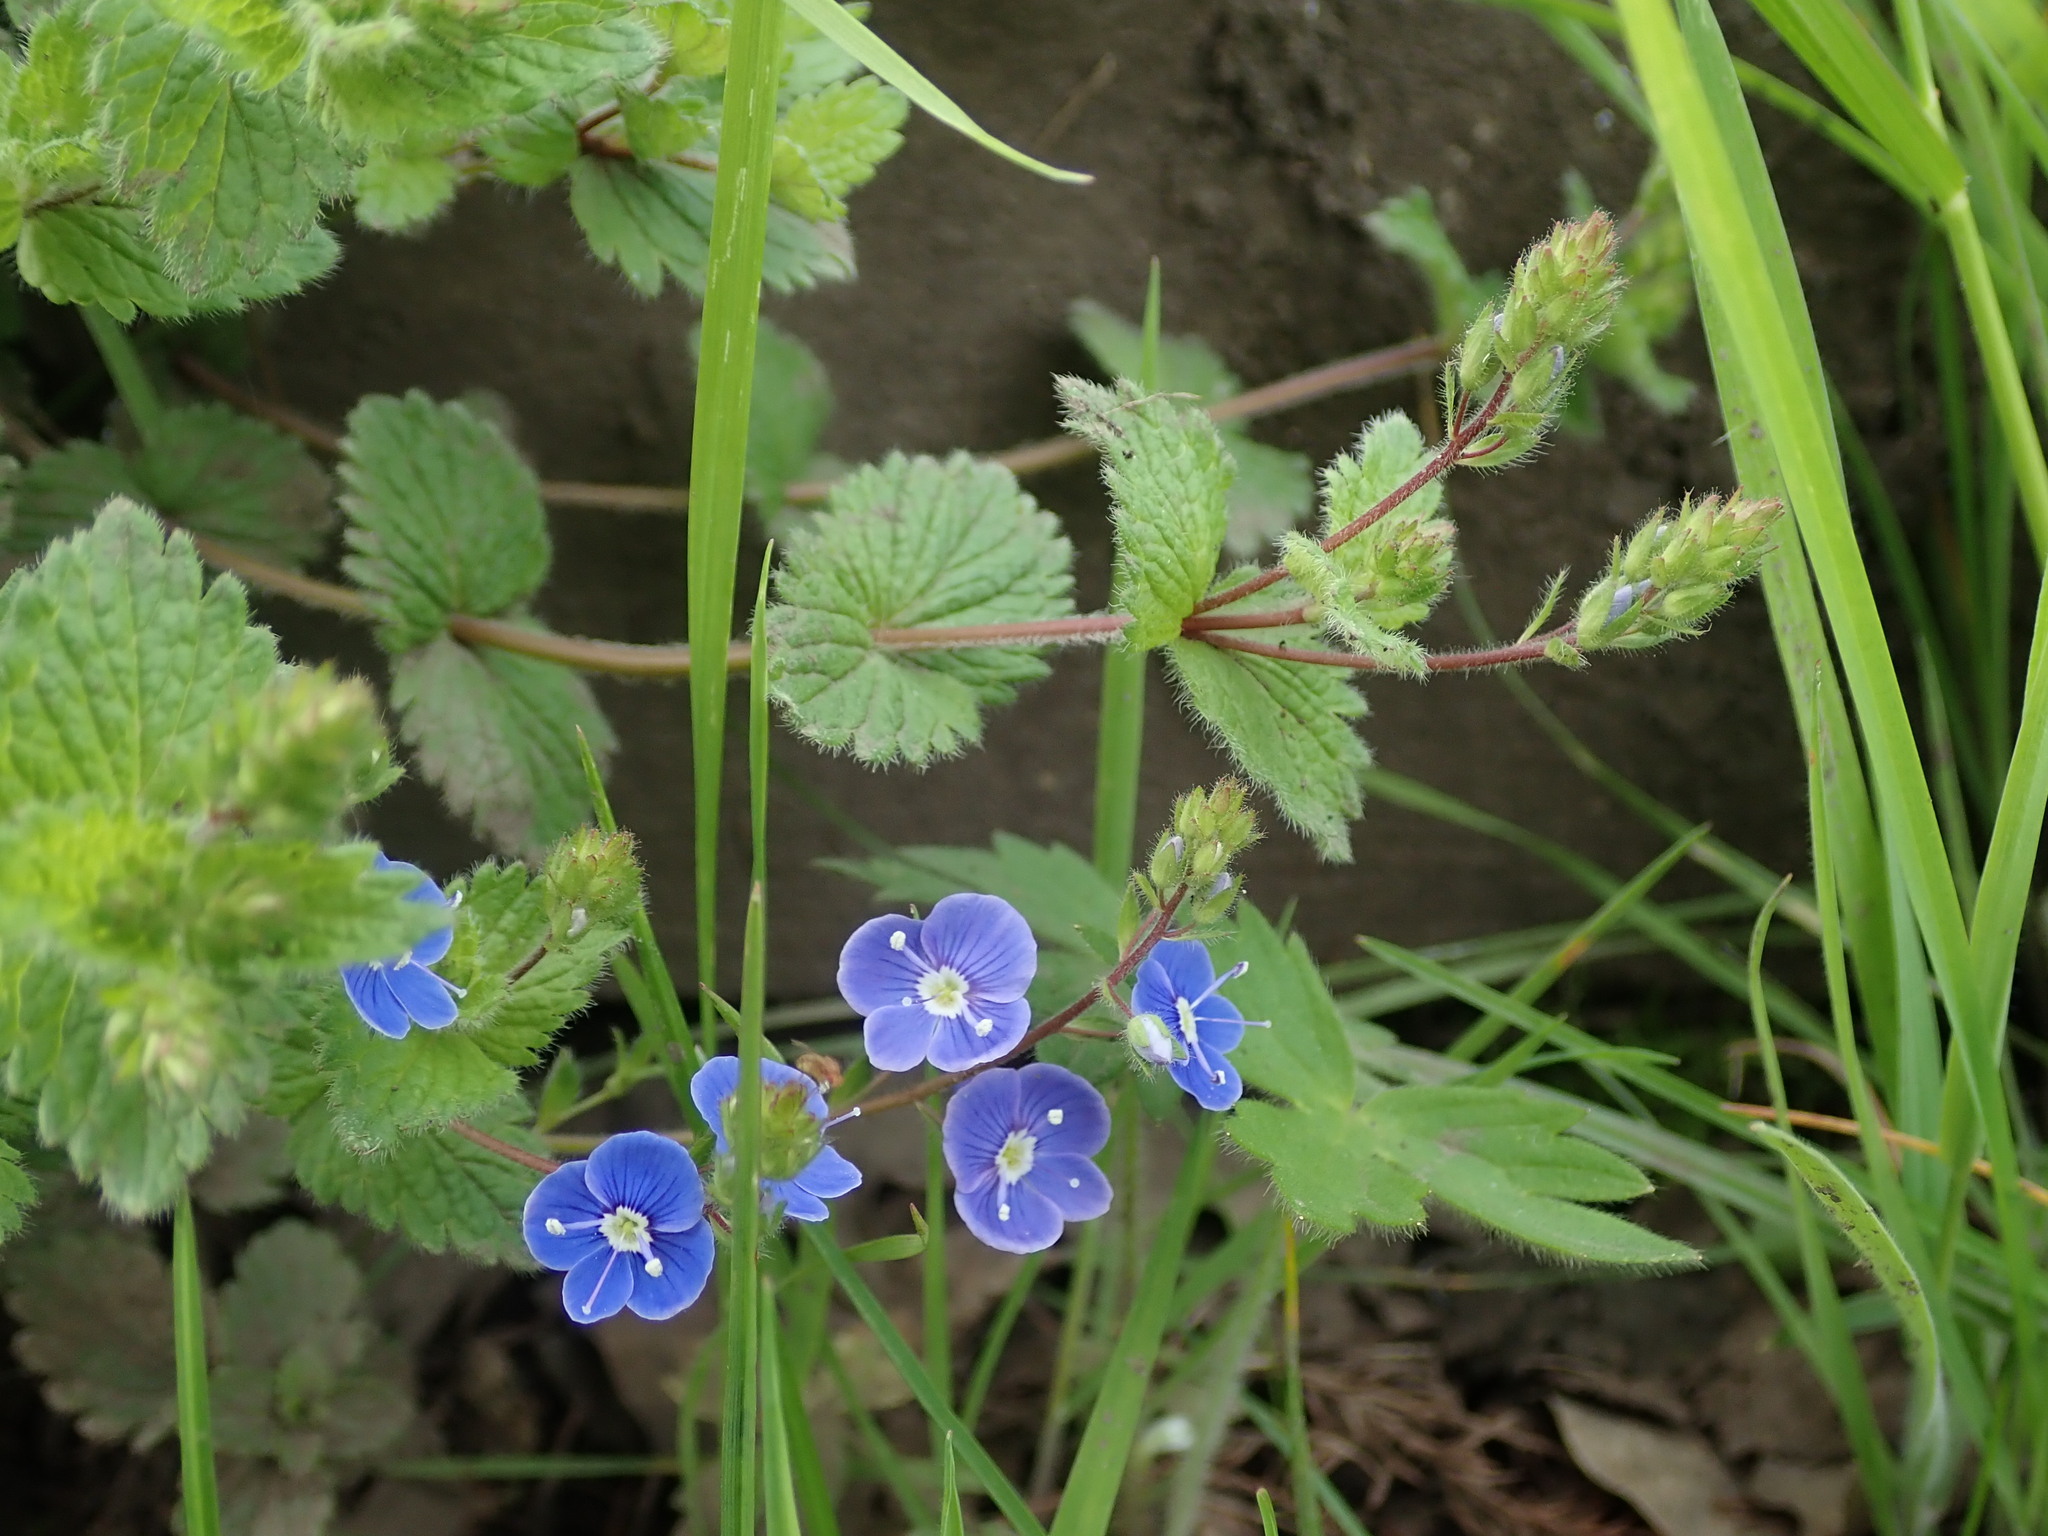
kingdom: Plantae
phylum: Tracheophyta
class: Magnoliopsida
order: Lamiales
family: Plantaginaceae
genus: Veronica
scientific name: Veronica chamaedrys
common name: Germander speedwell
